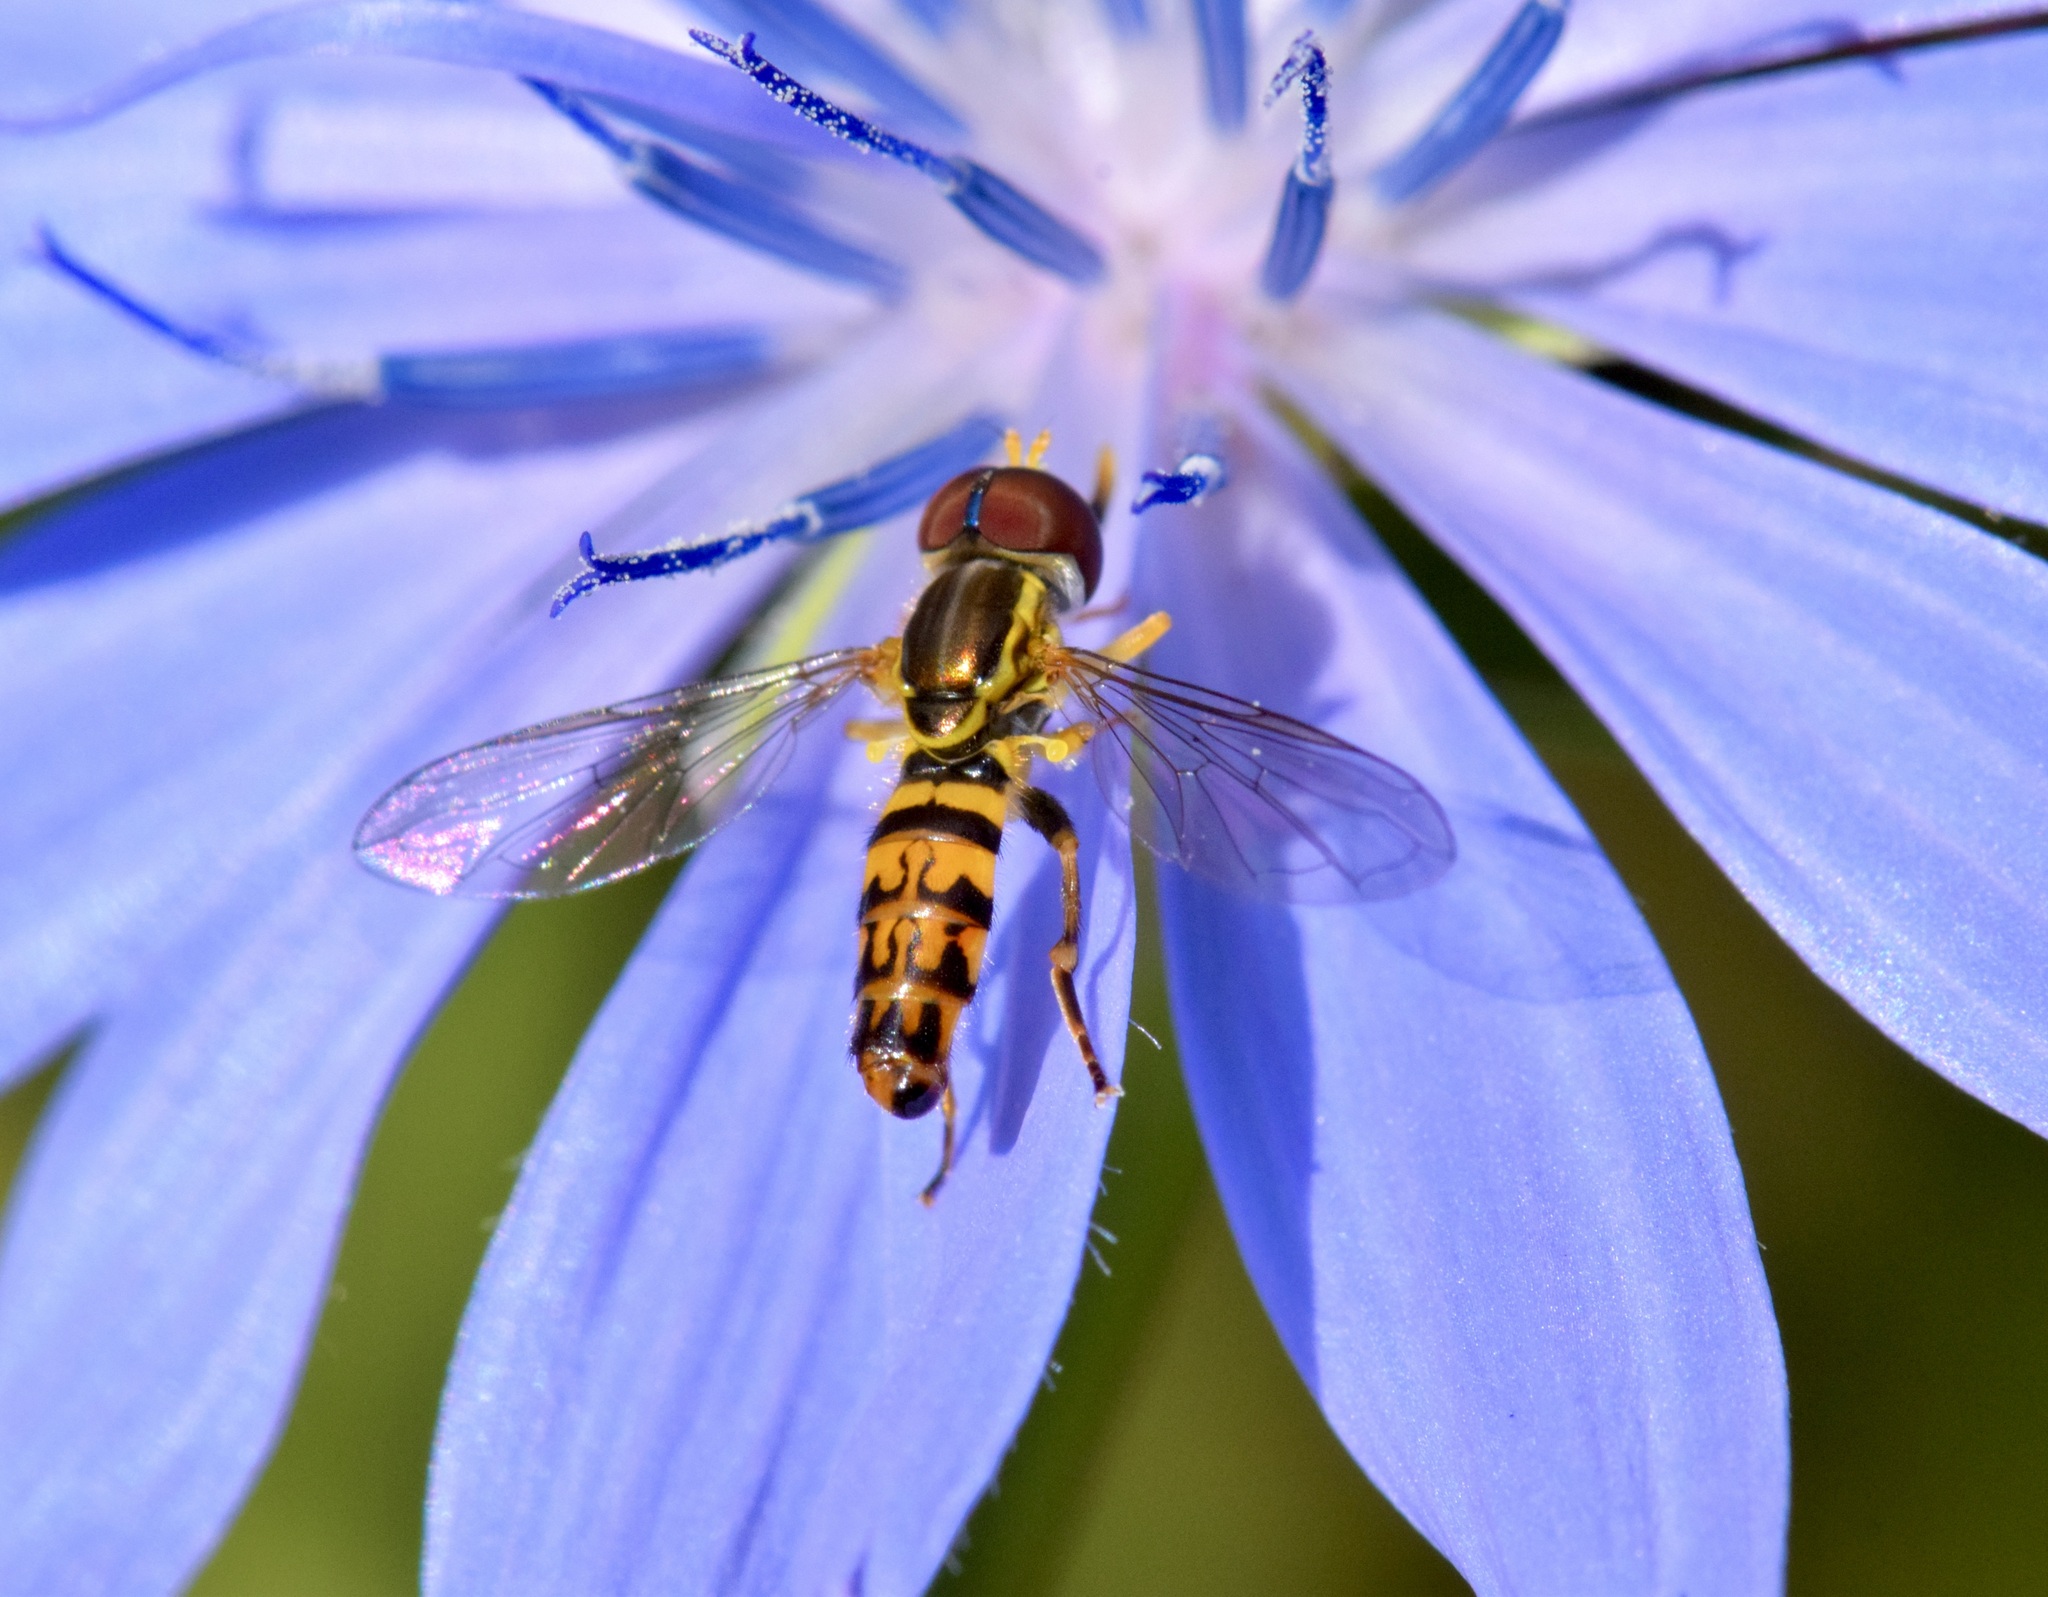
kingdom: Animalia
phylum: Arthropoda
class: Insecta
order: Diptera
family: Syrphidae
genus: Toxomerus
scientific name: Toxomerus geminatus
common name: Eastern calligrapher
